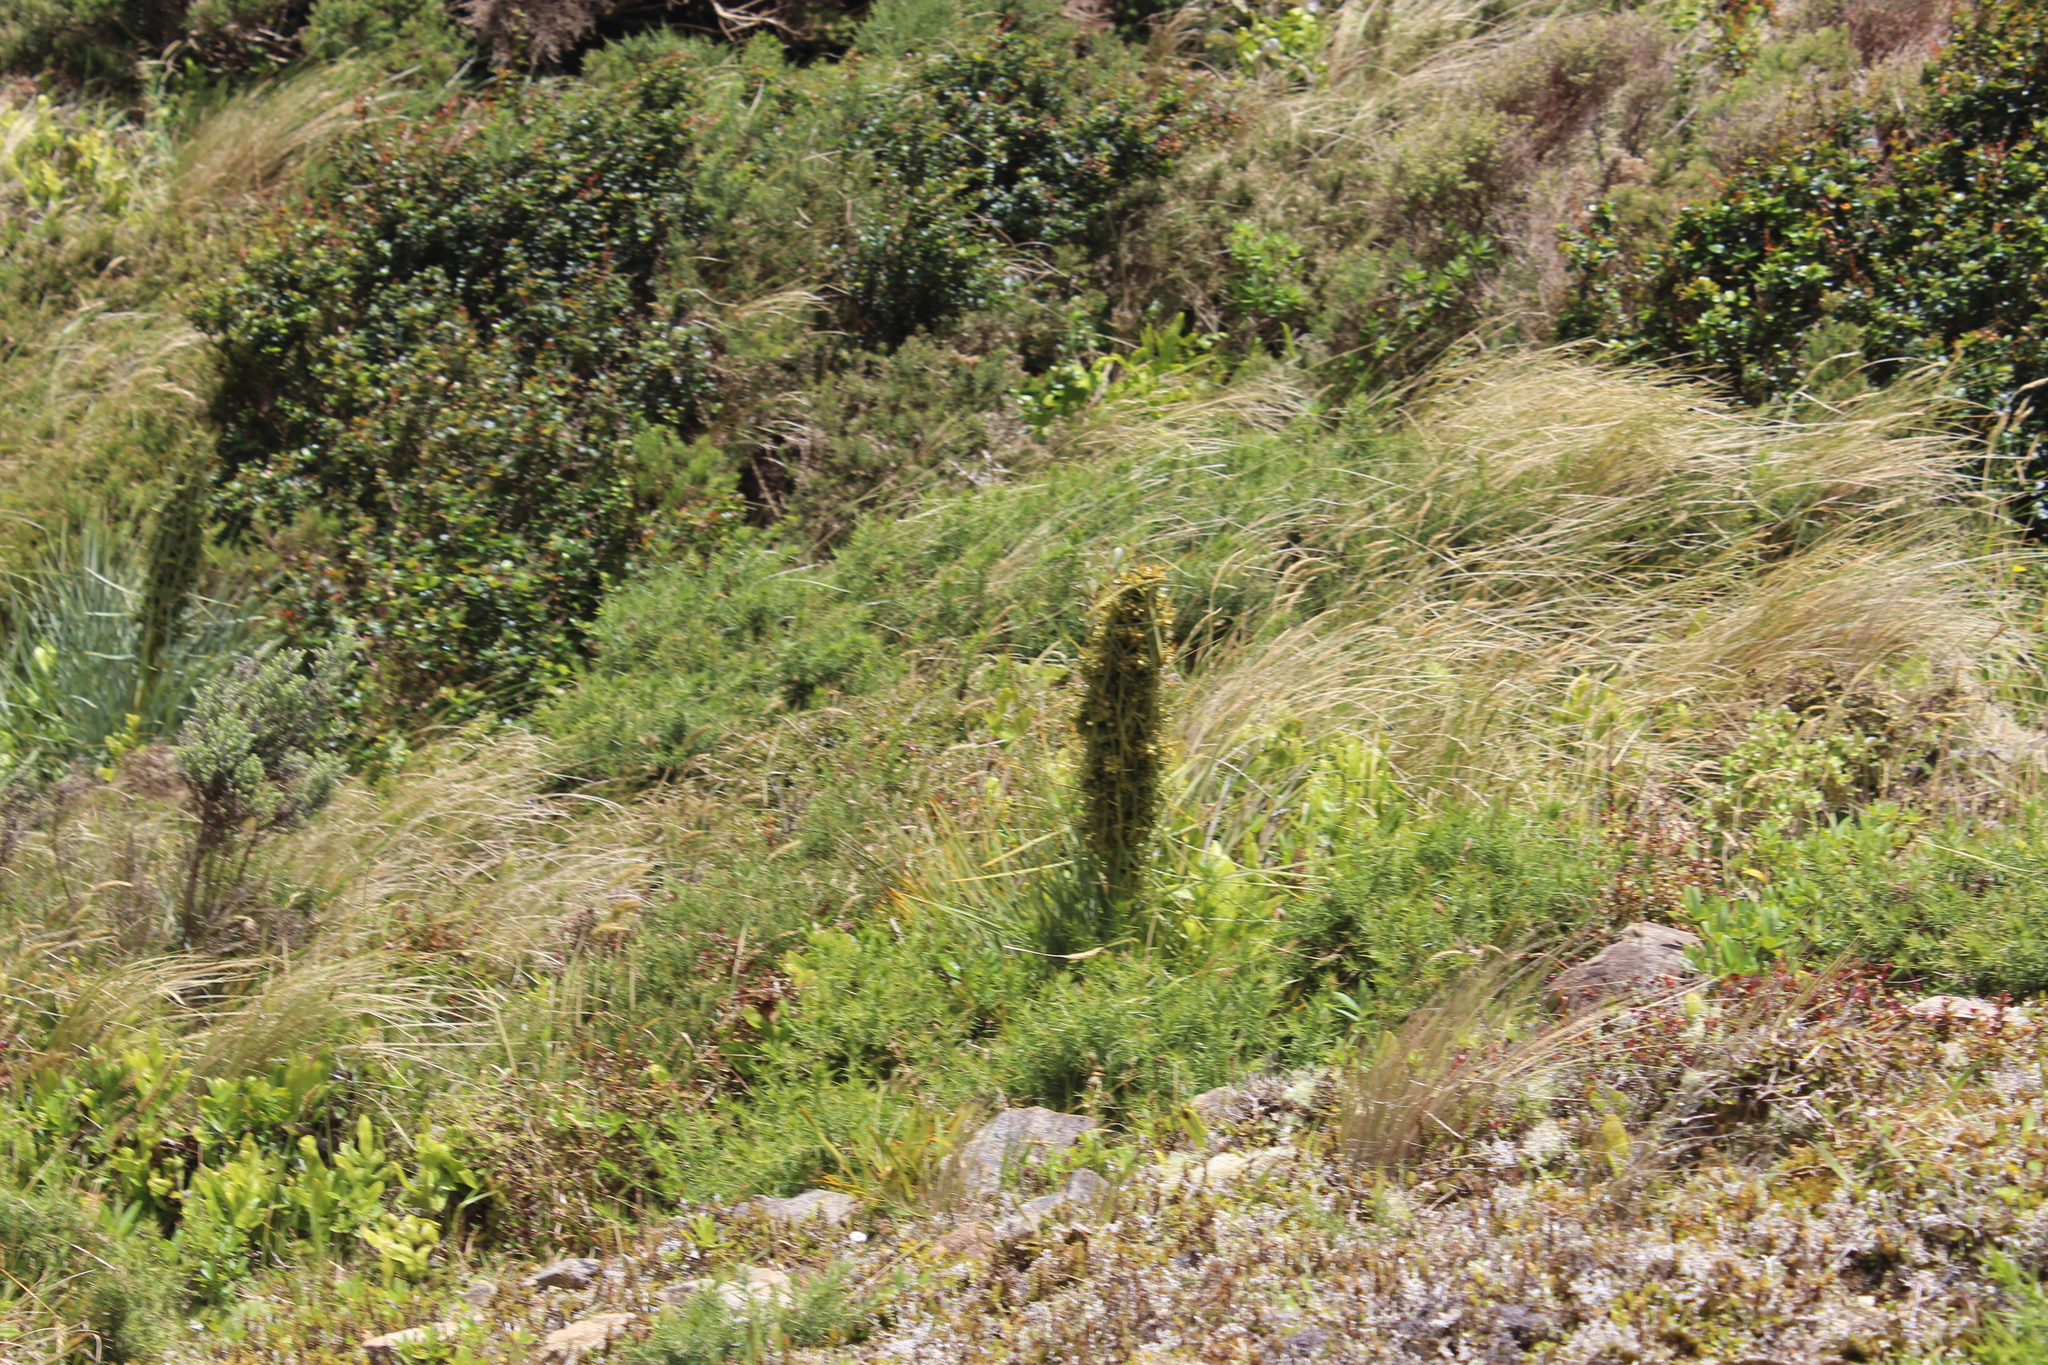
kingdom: Plantae
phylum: Tracheophyta
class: Magnoliopsida
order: Apiales
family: Apiaceae
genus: Aciphylla
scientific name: Aciphylla squarrosa
